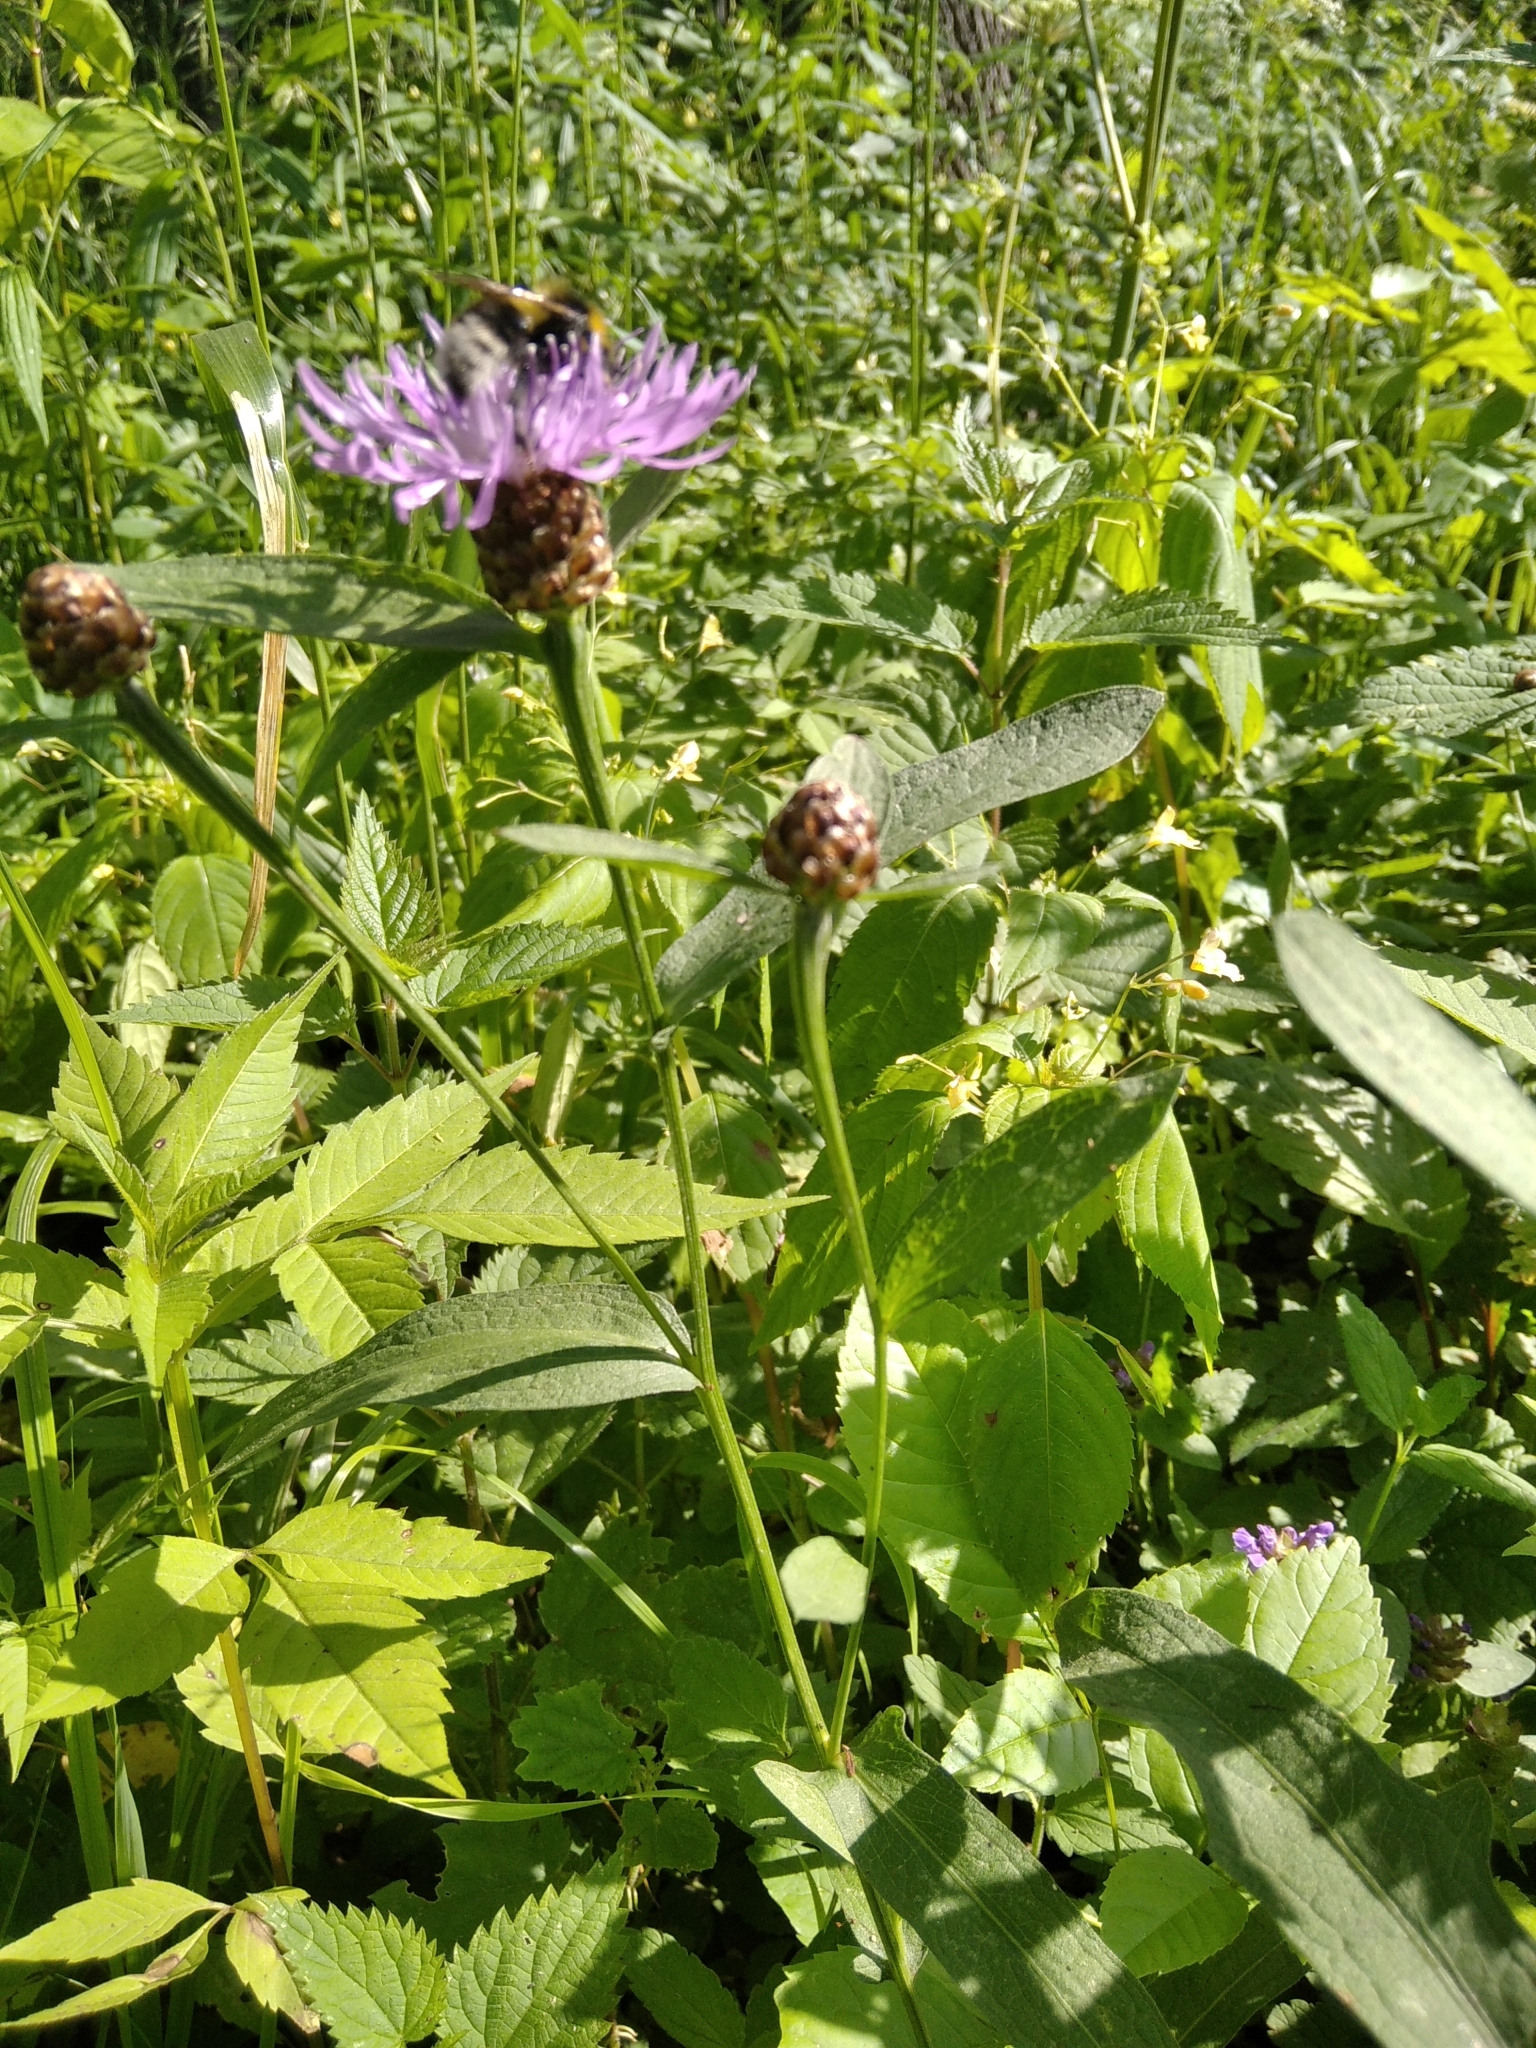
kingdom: Plantae
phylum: Tracheophyta
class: Magnoliopsida
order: Asterales
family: Asteraceae
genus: Centaurea
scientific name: Centaurea jacea
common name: Brown knapweed
